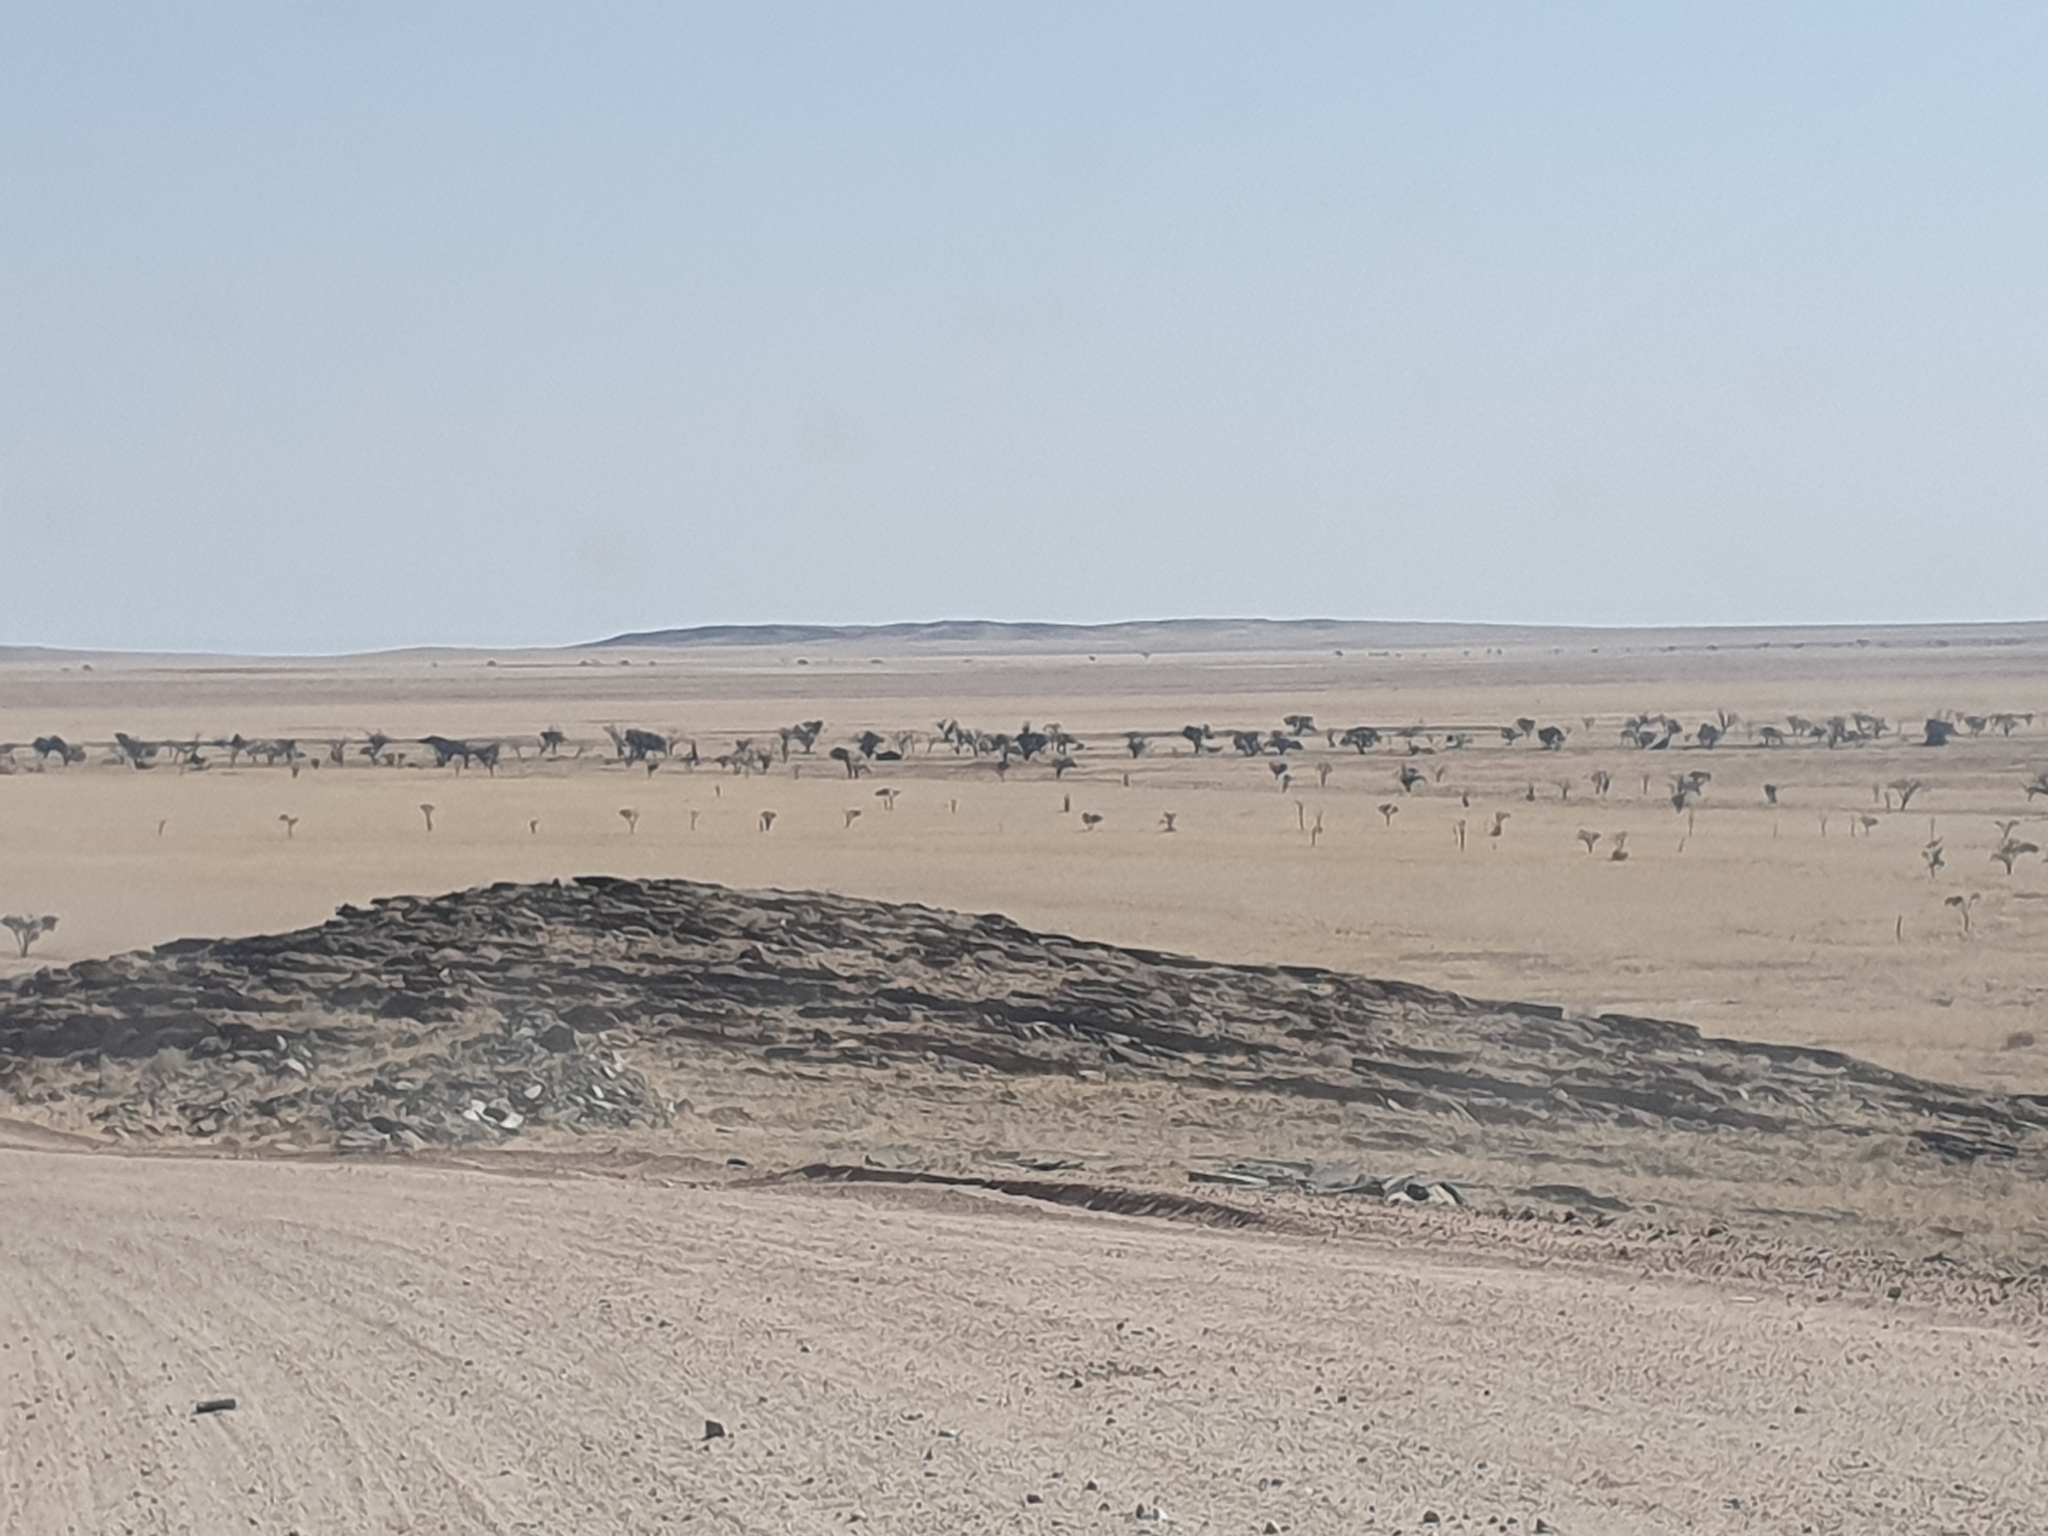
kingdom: Plantae
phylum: Tracheophyta
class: Magnoliopsida
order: Fabales
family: Fabaceae
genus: Vachellia
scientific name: Vachellia erioloba
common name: Camel thorn
